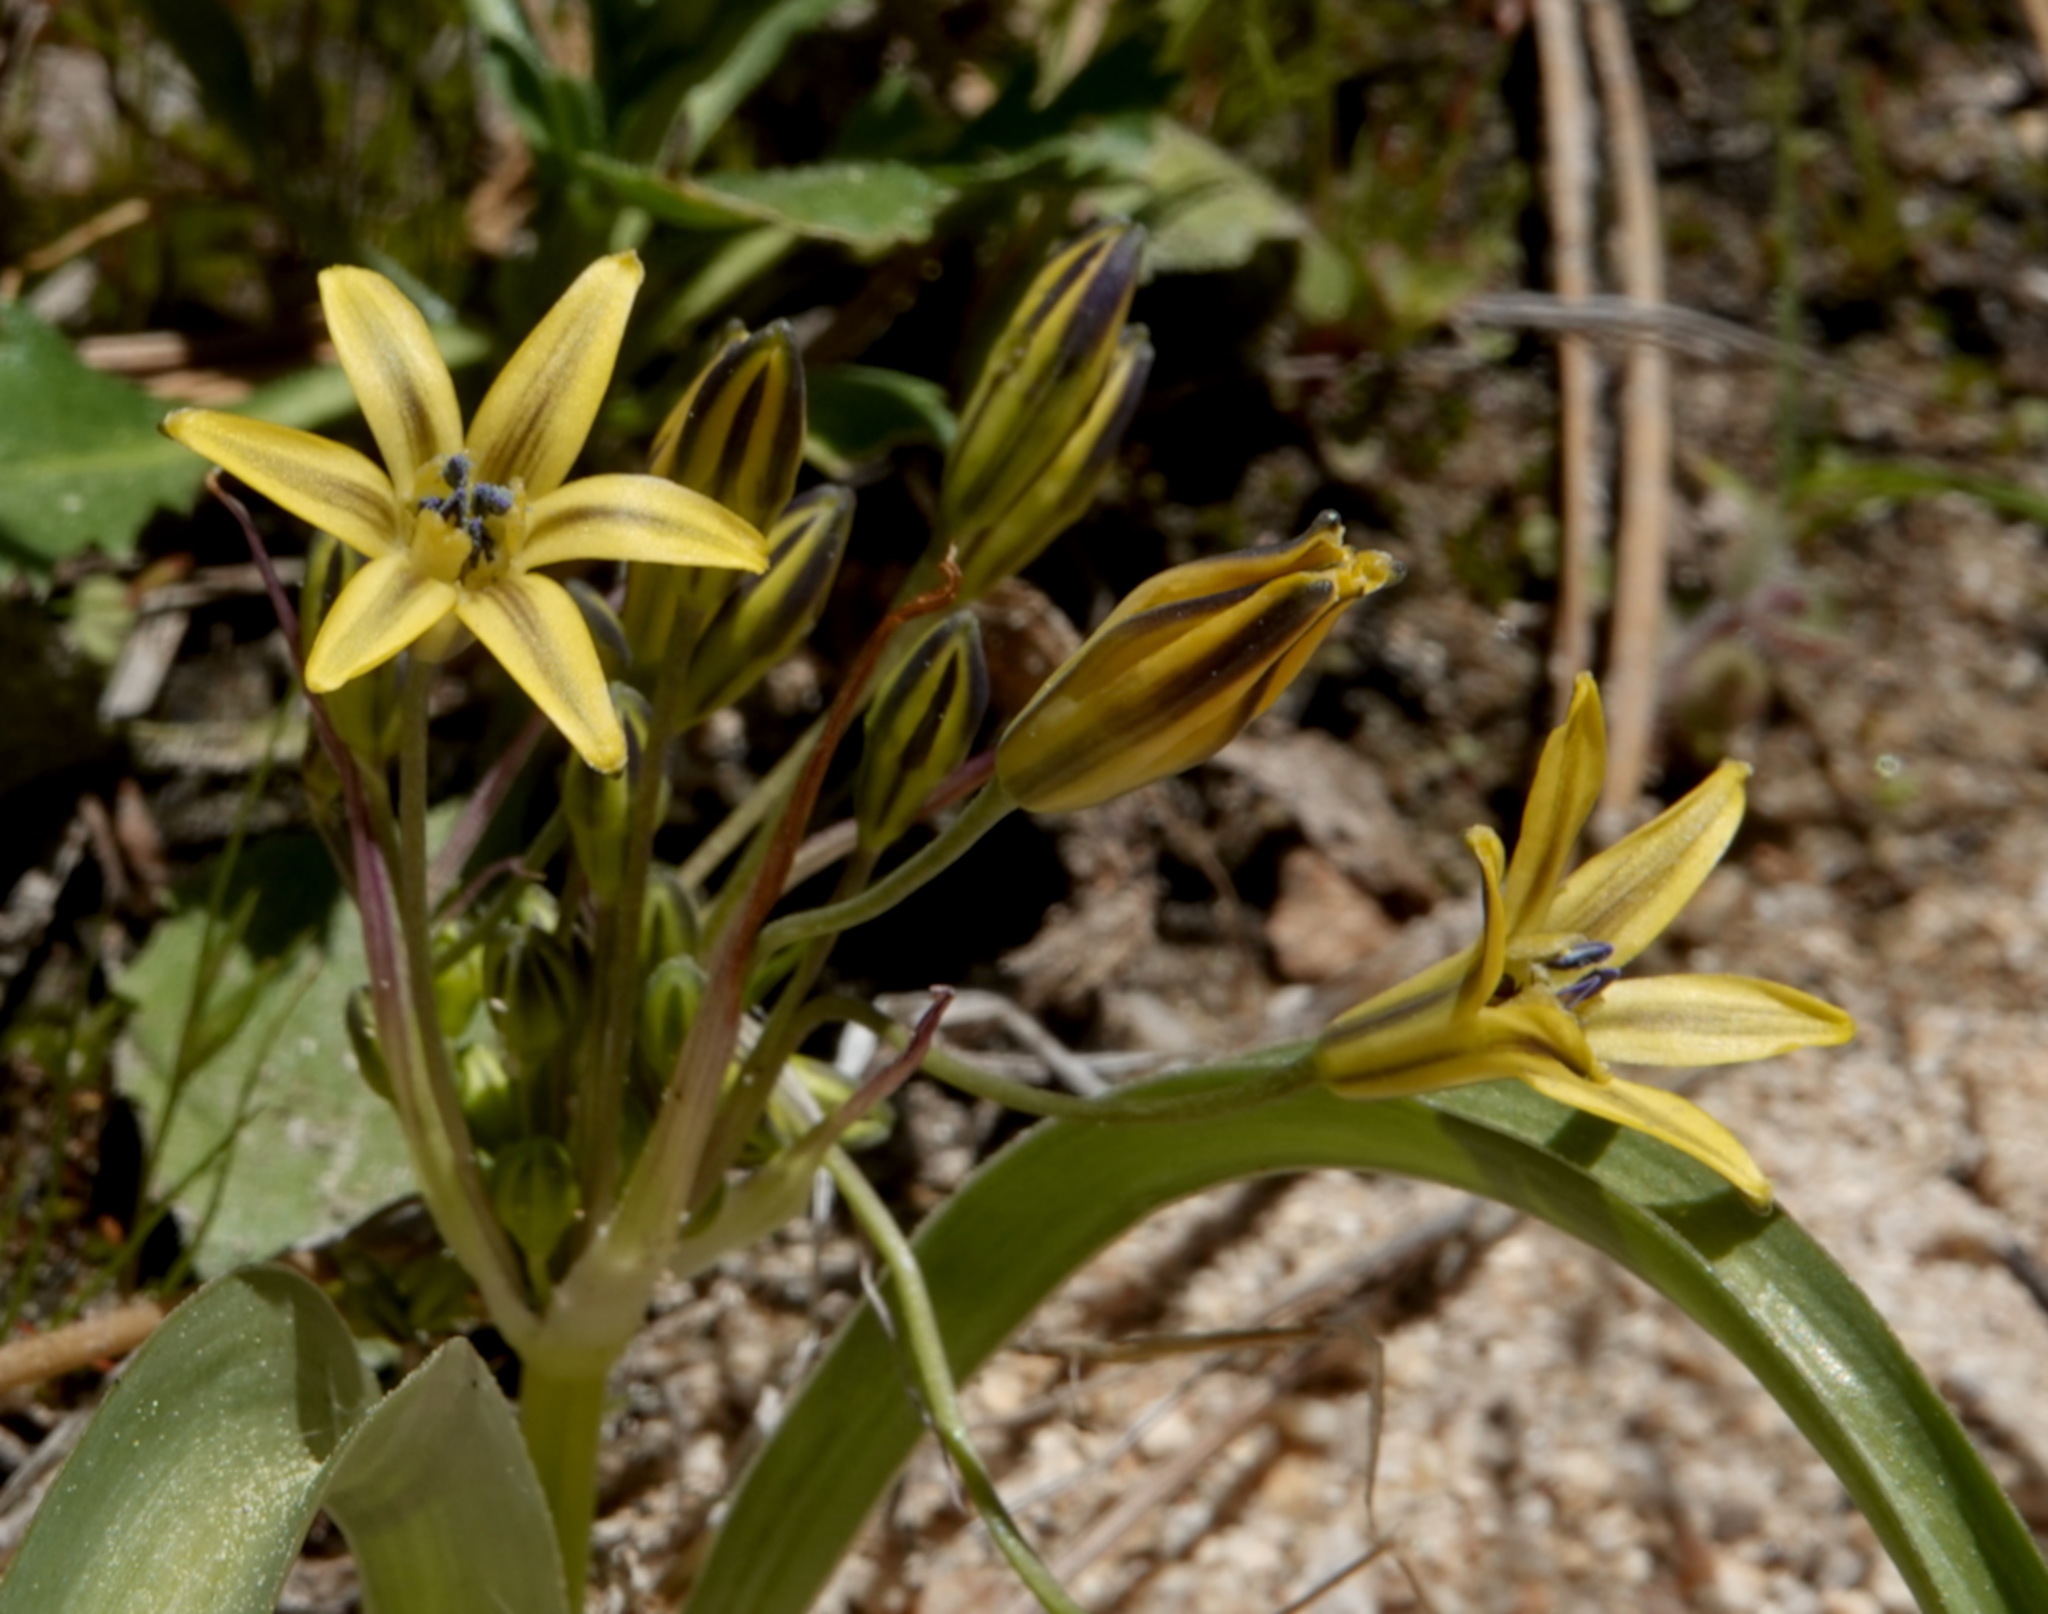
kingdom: Plantae
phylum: Tracheophyta
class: Liliopsida
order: Asparagales
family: Asparagaceae
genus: Triteleia
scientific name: Triteleia lugens
